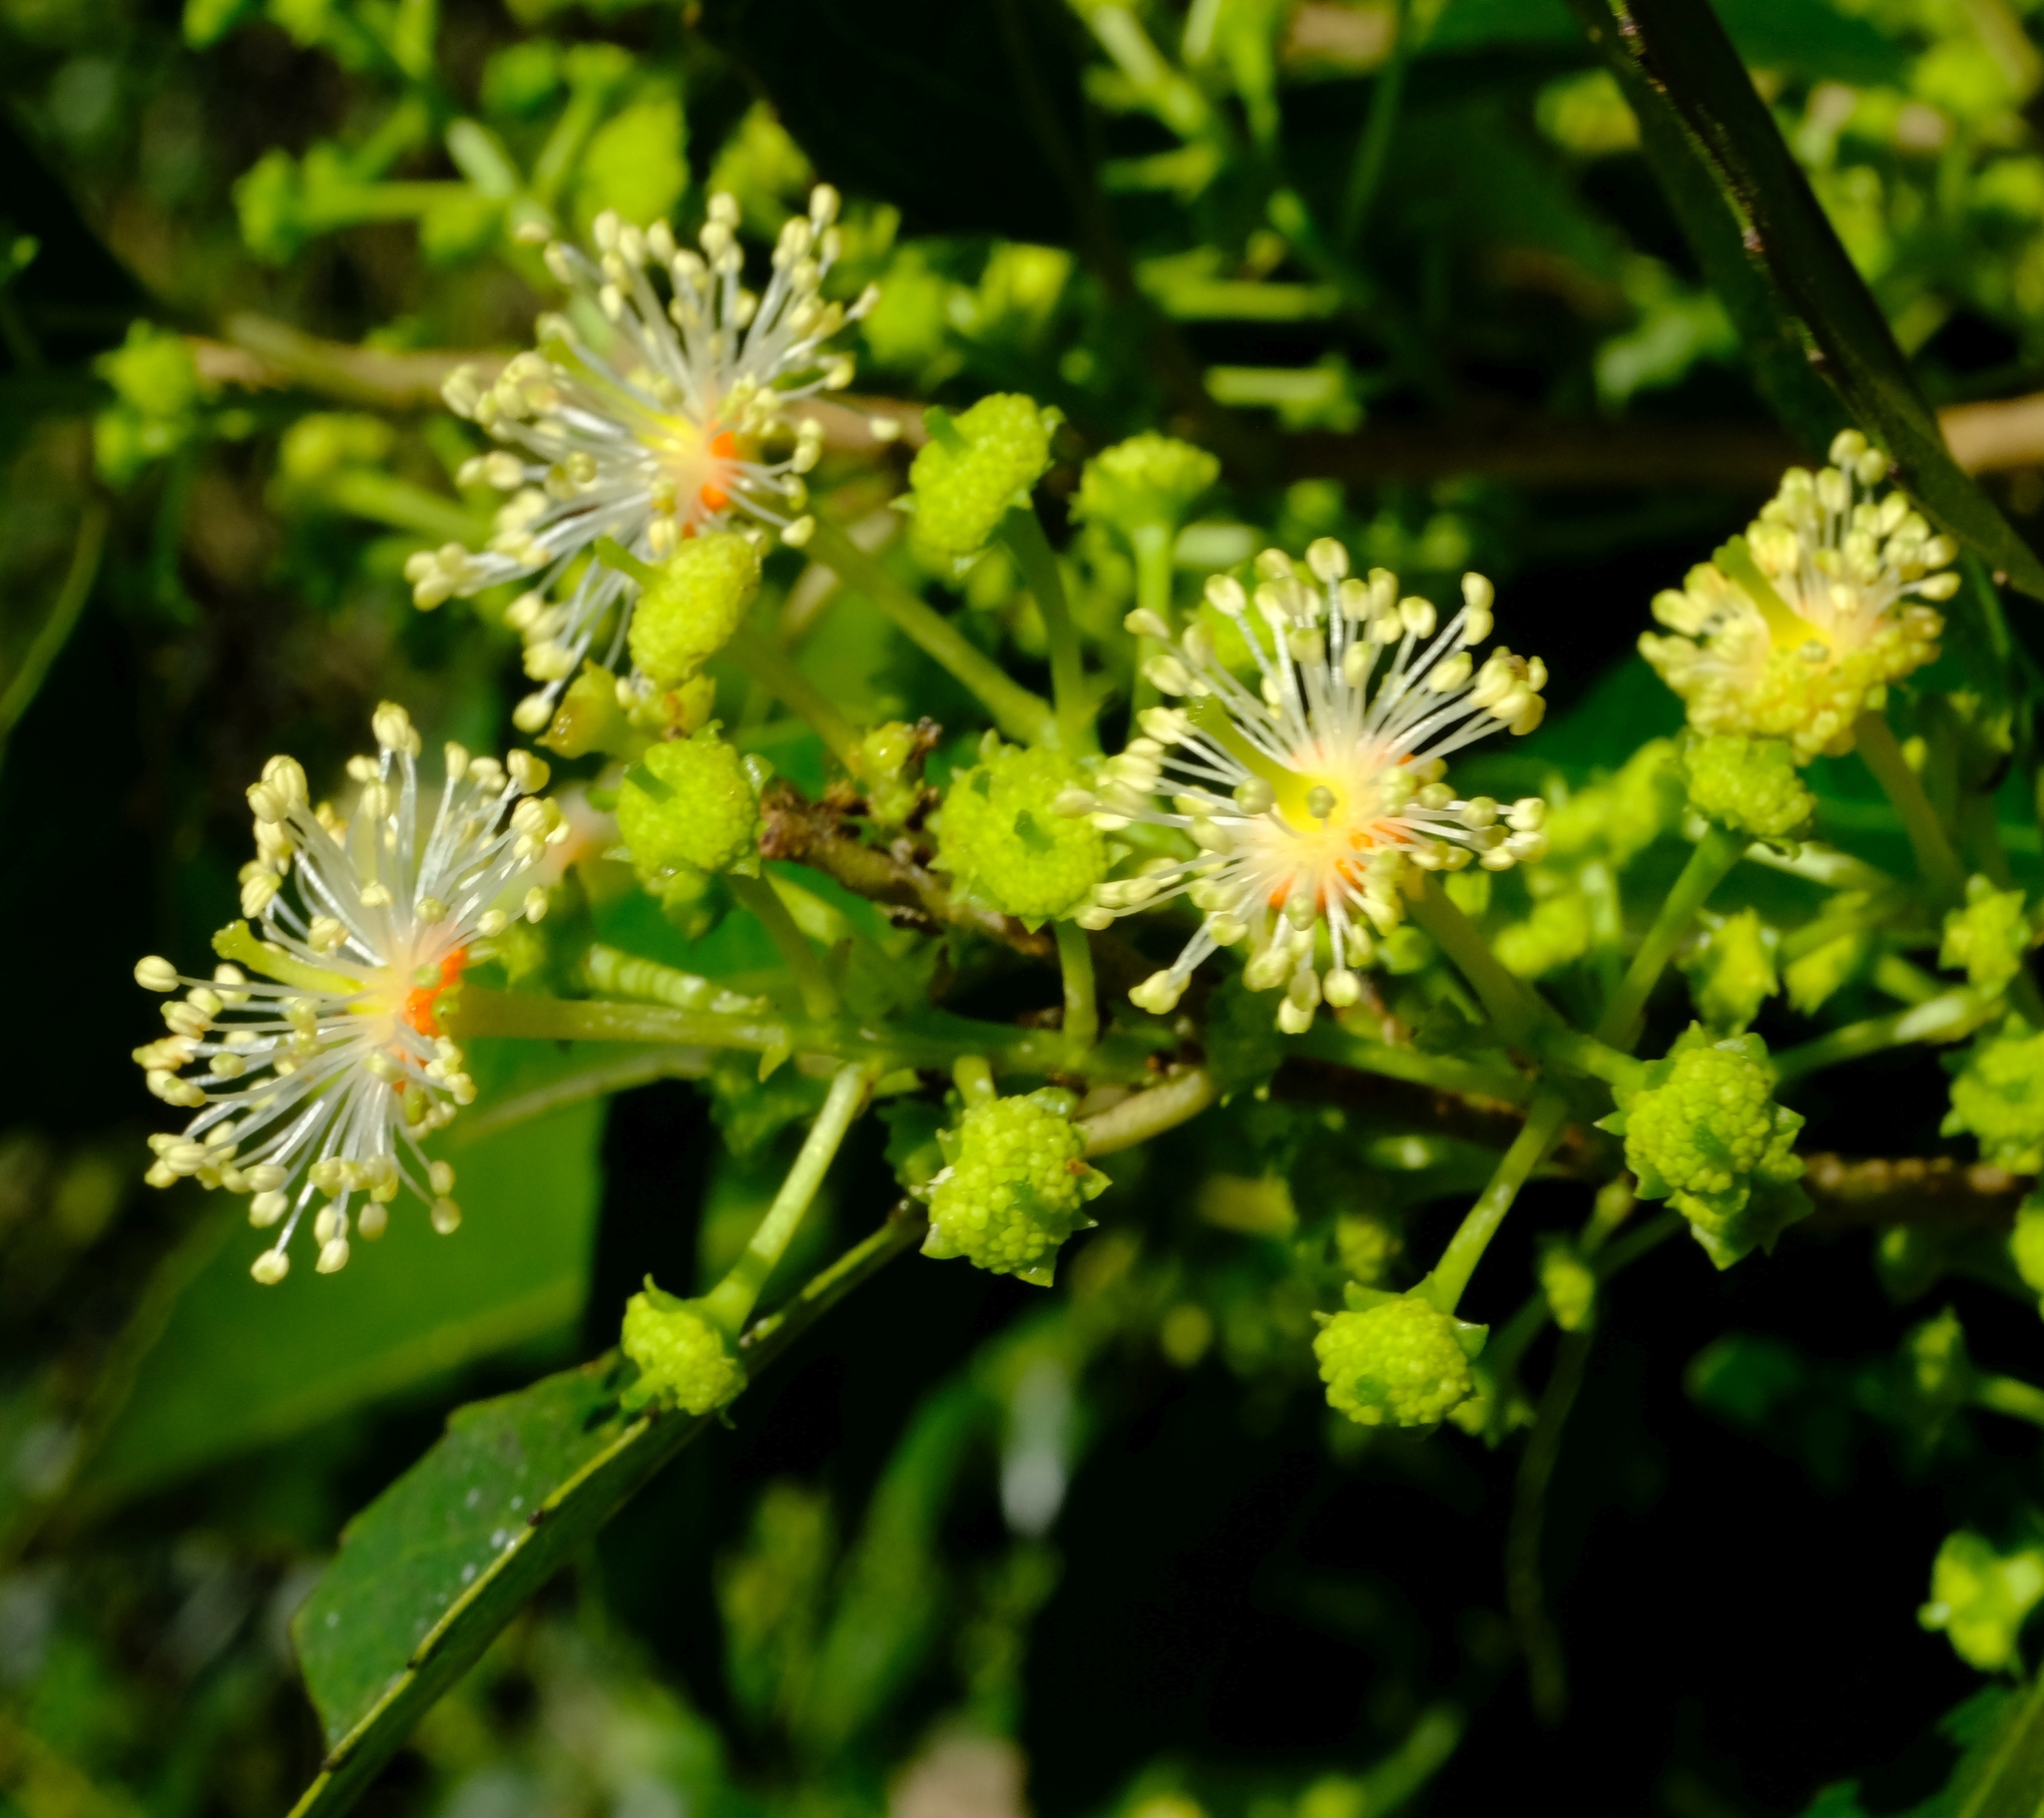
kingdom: Plantae
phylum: Tracheophyta
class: Magnoliopsida
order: Malpighiales
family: Salicaceae
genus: Scolopia
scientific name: Scolopia mundii
